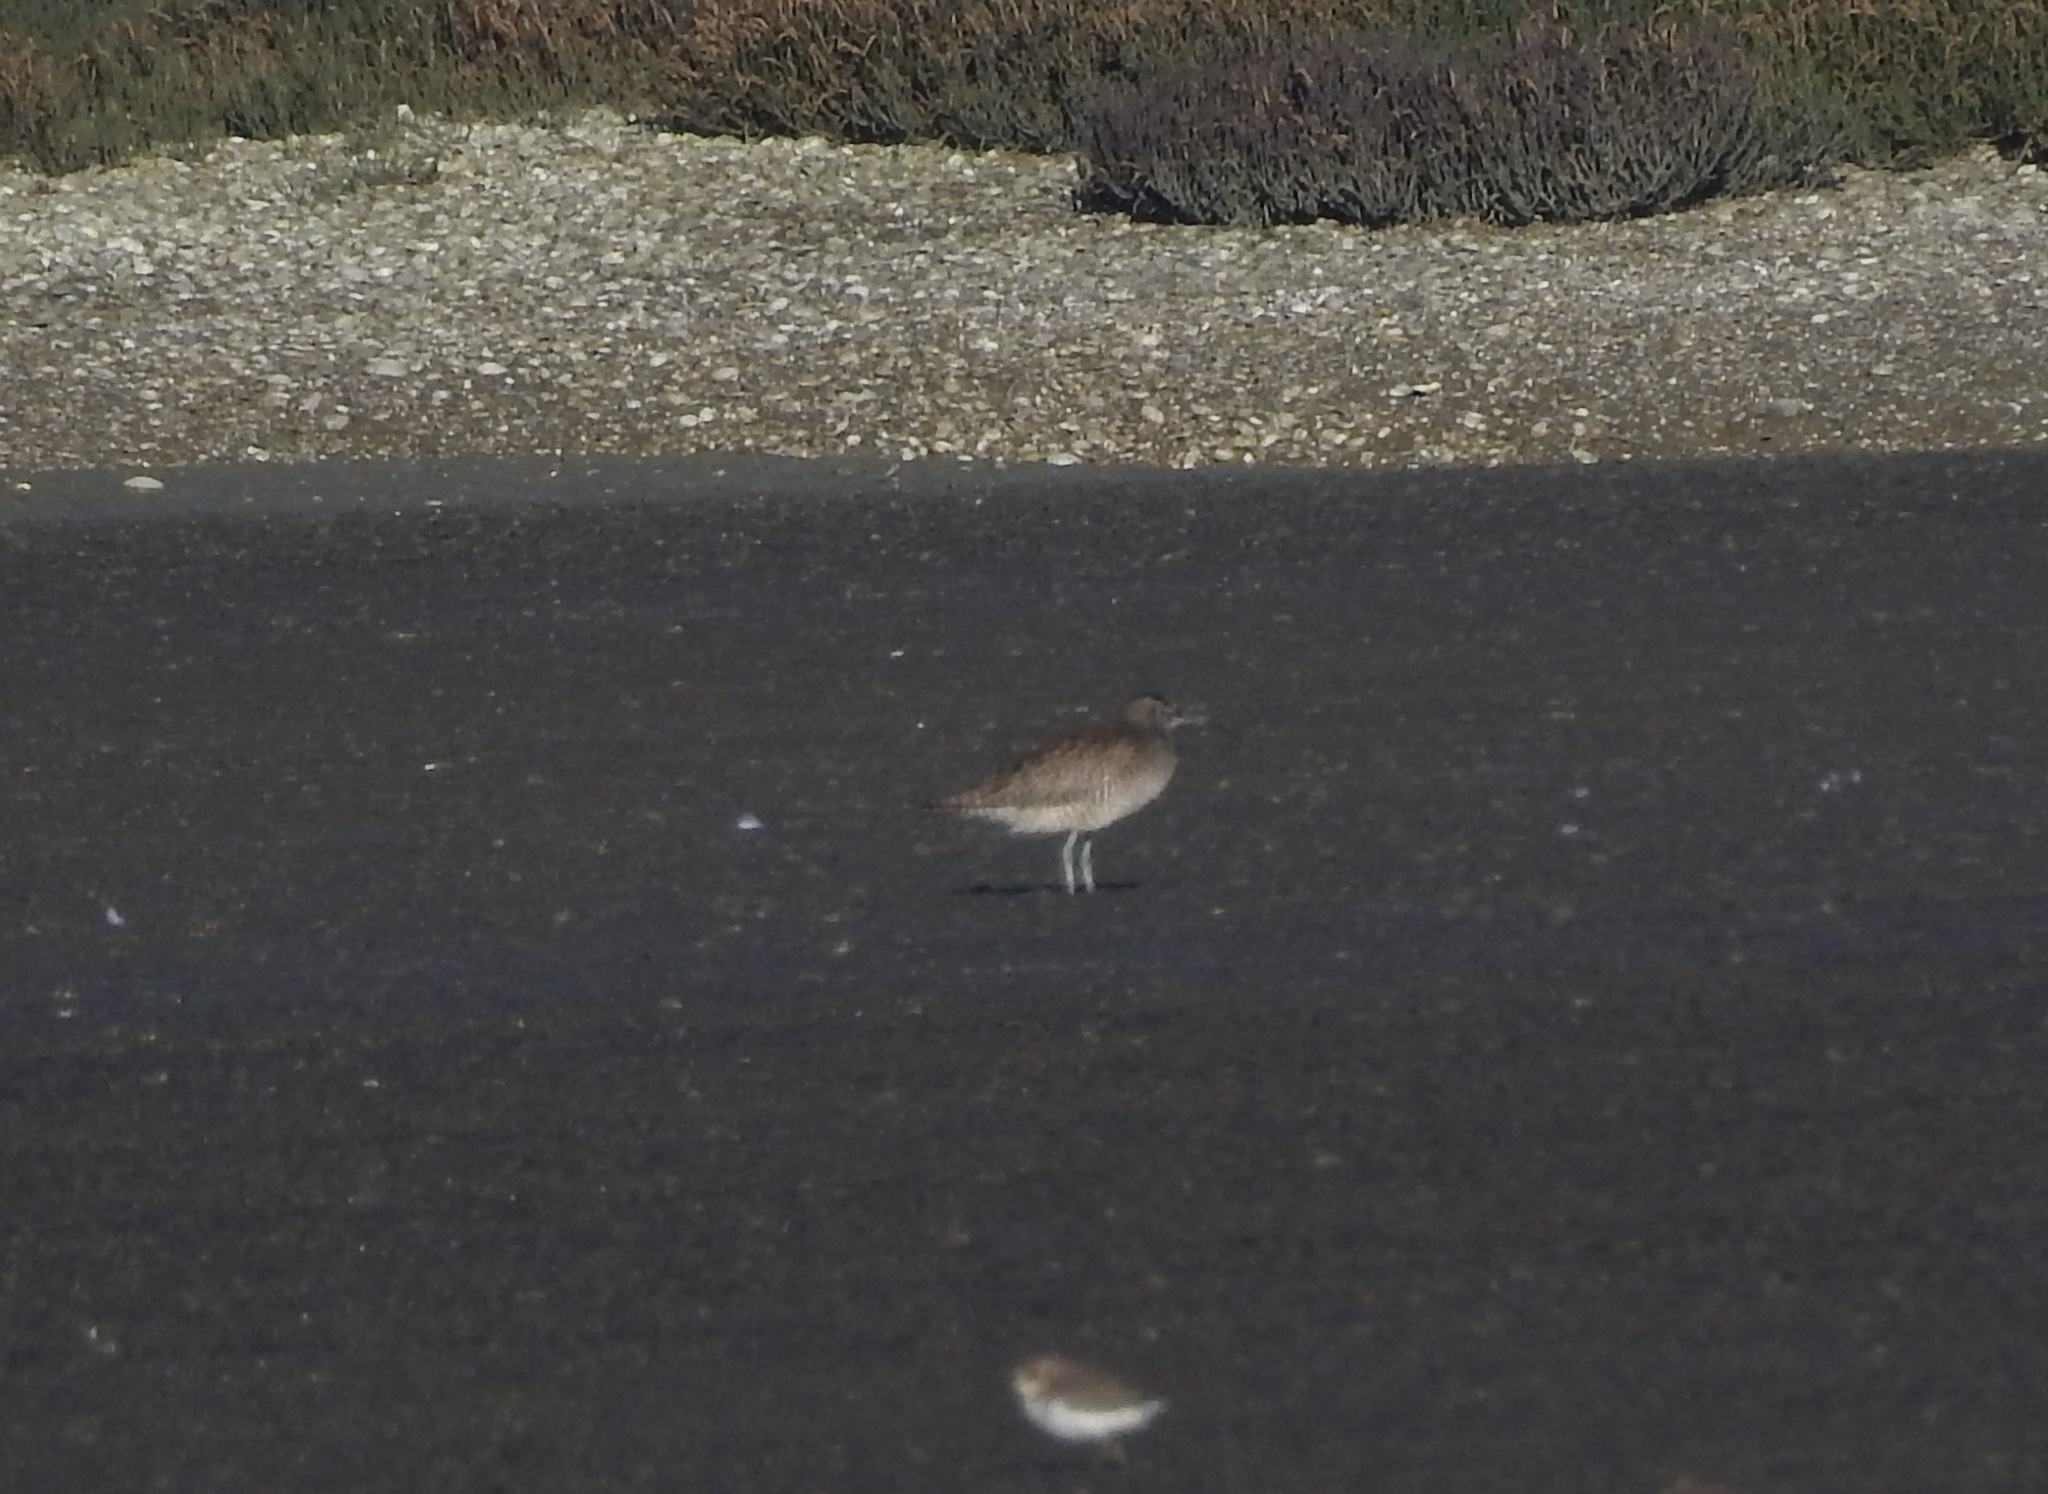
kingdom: Animalia
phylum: Chordata
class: Aves
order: Charadriiformes
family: Scolopacidae
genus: Numenius
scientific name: Numenius phaeopus
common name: Whimbrel
